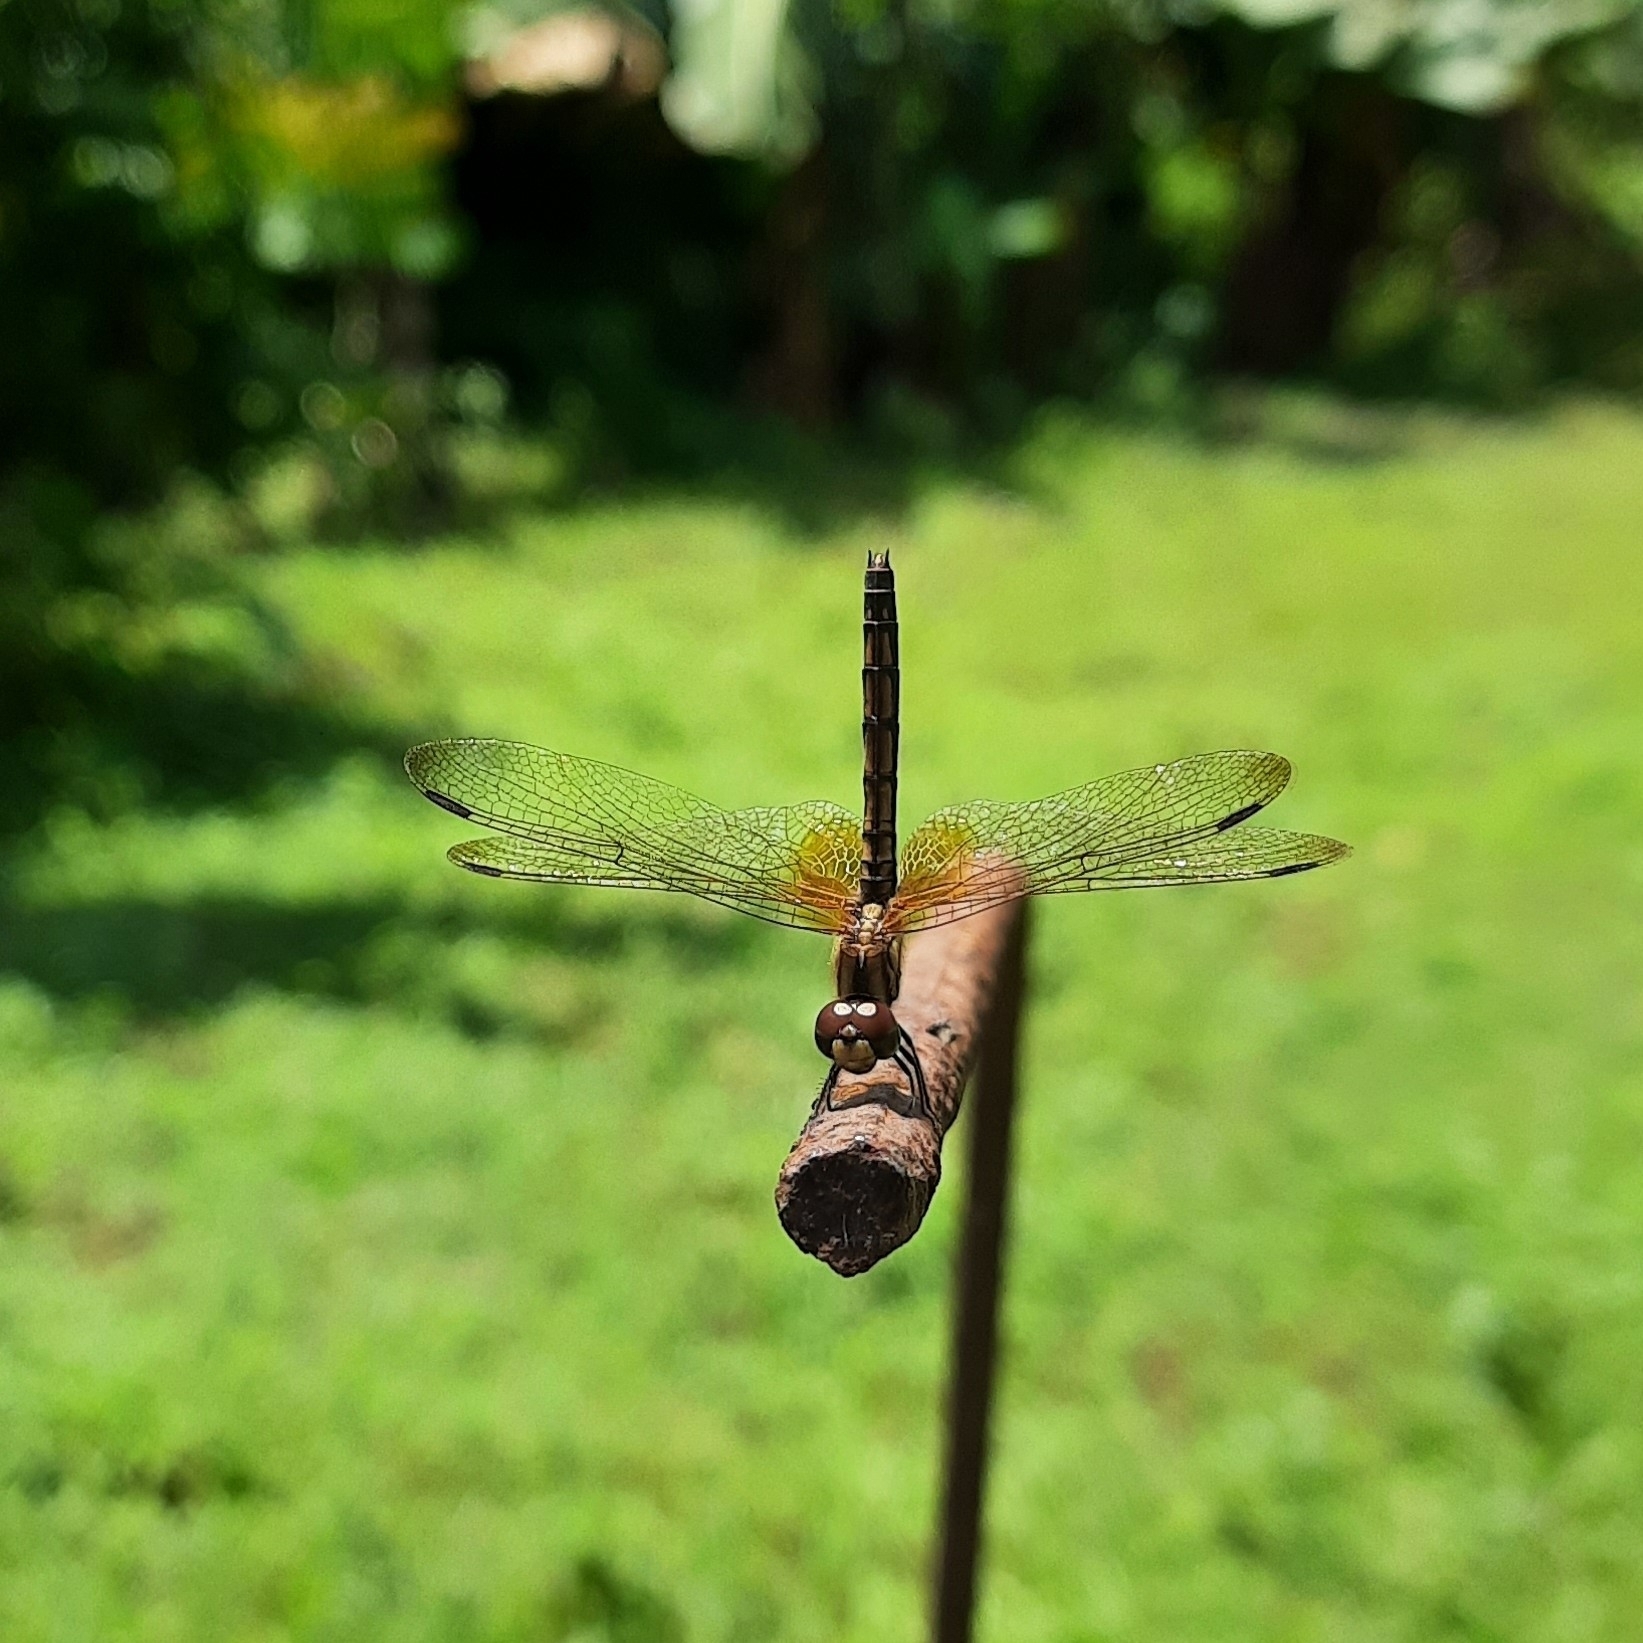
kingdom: Animalia
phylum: Arthropoda
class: Insecta
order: Odonata
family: Libellulidae
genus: Trithemis
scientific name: Trithemis aurora
